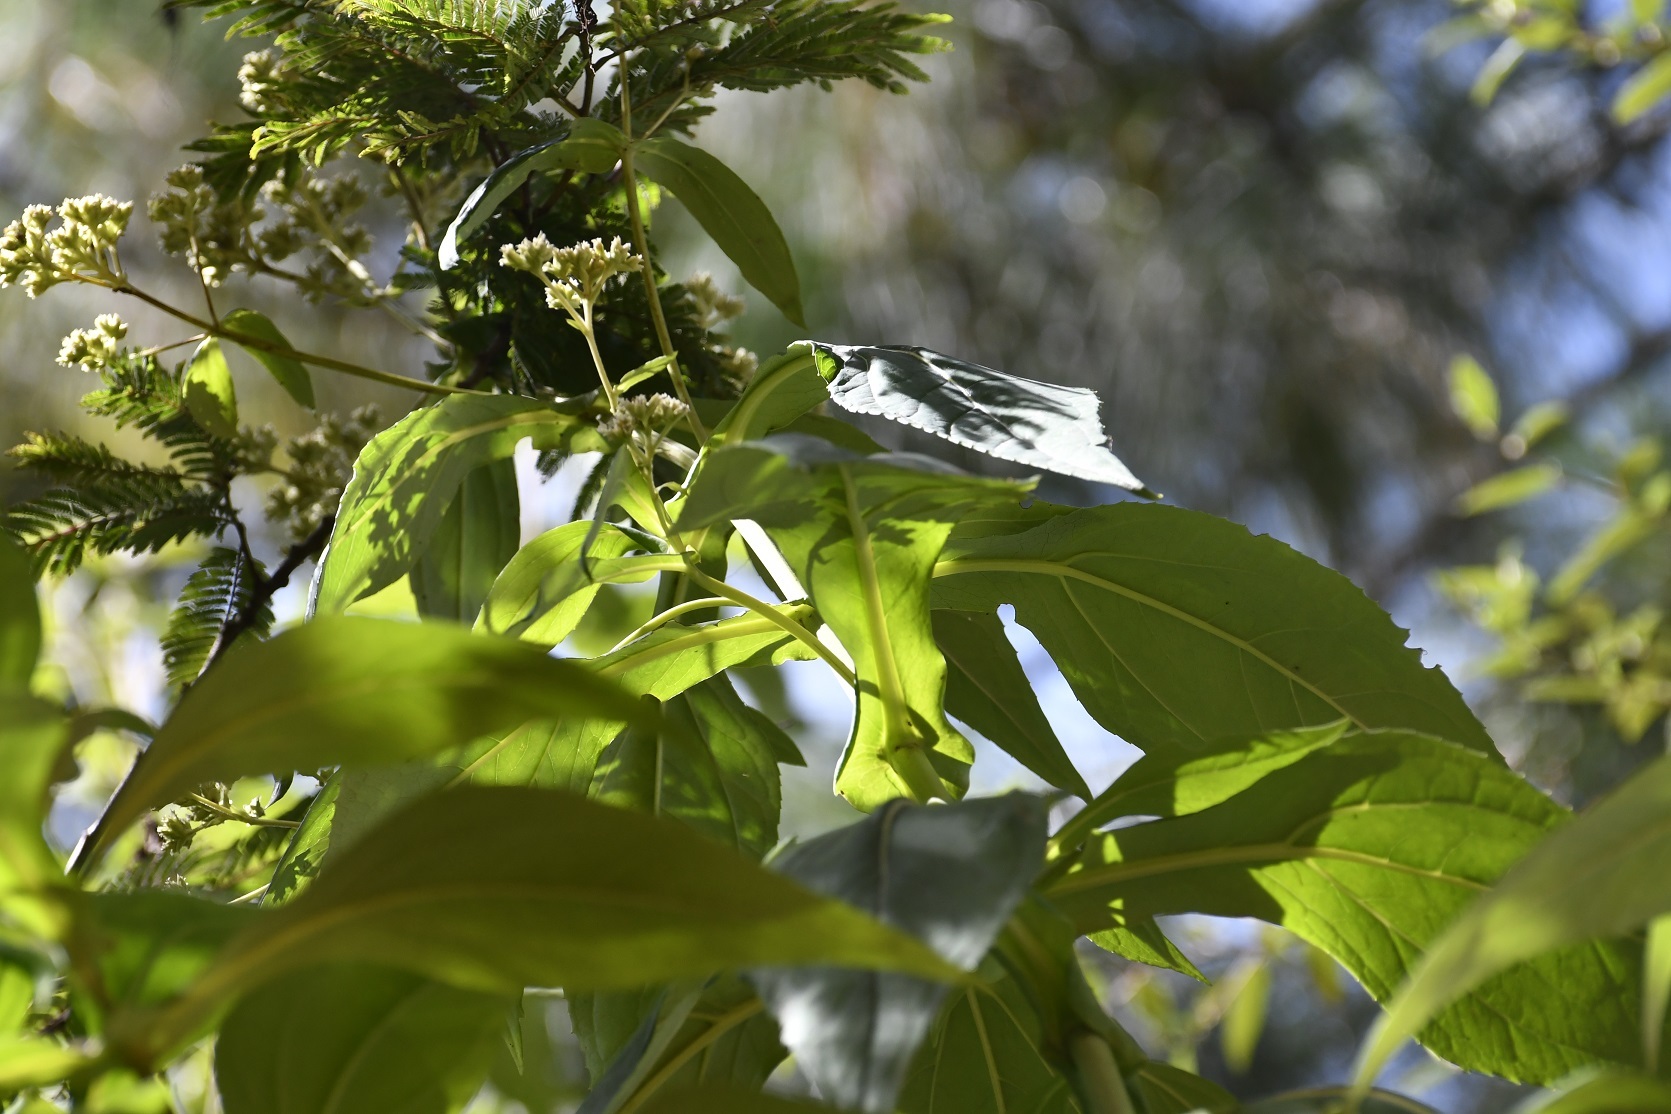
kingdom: Plantae
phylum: Tracheophyta
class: Magnoliopsida
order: Asterales
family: Asteraceae
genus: Desmanthodium
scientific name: Desmanthodium perfoliatum
